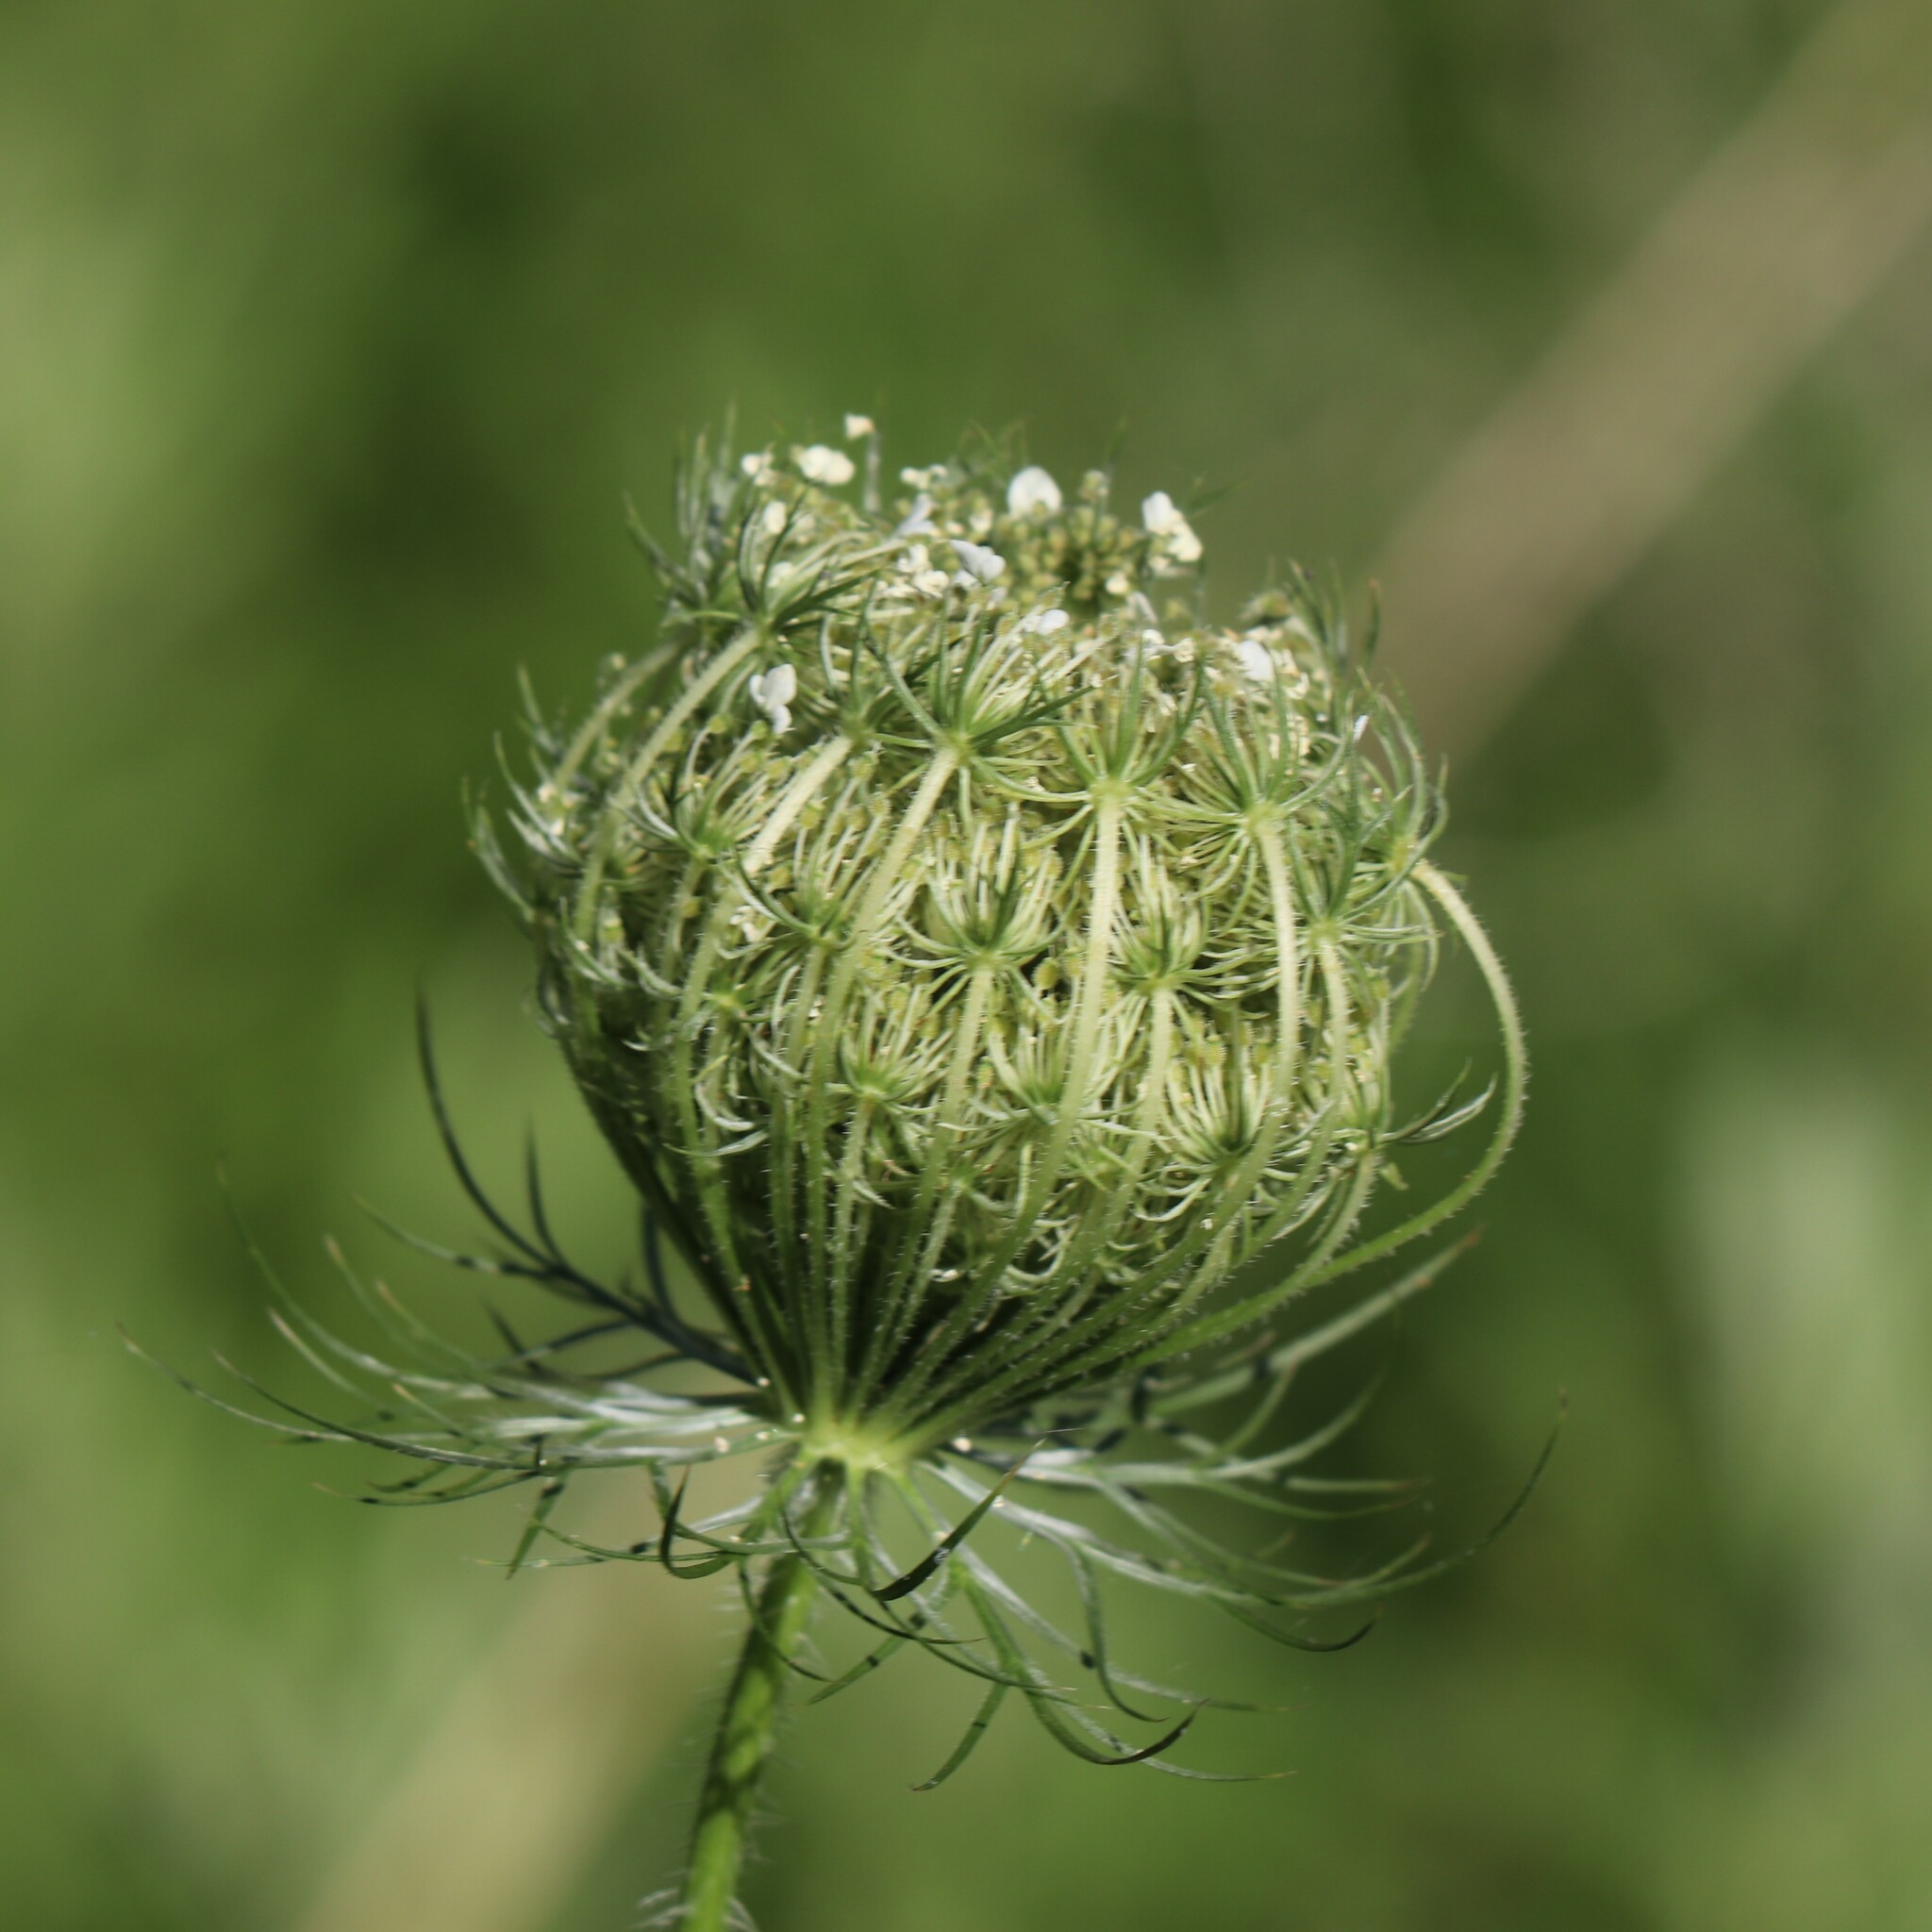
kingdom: Plantae
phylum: Tracheophyta
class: Magnoliopsida
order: Apiales
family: Apiaceae
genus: Daucus
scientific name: Daucus carota
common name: Wild carrot
